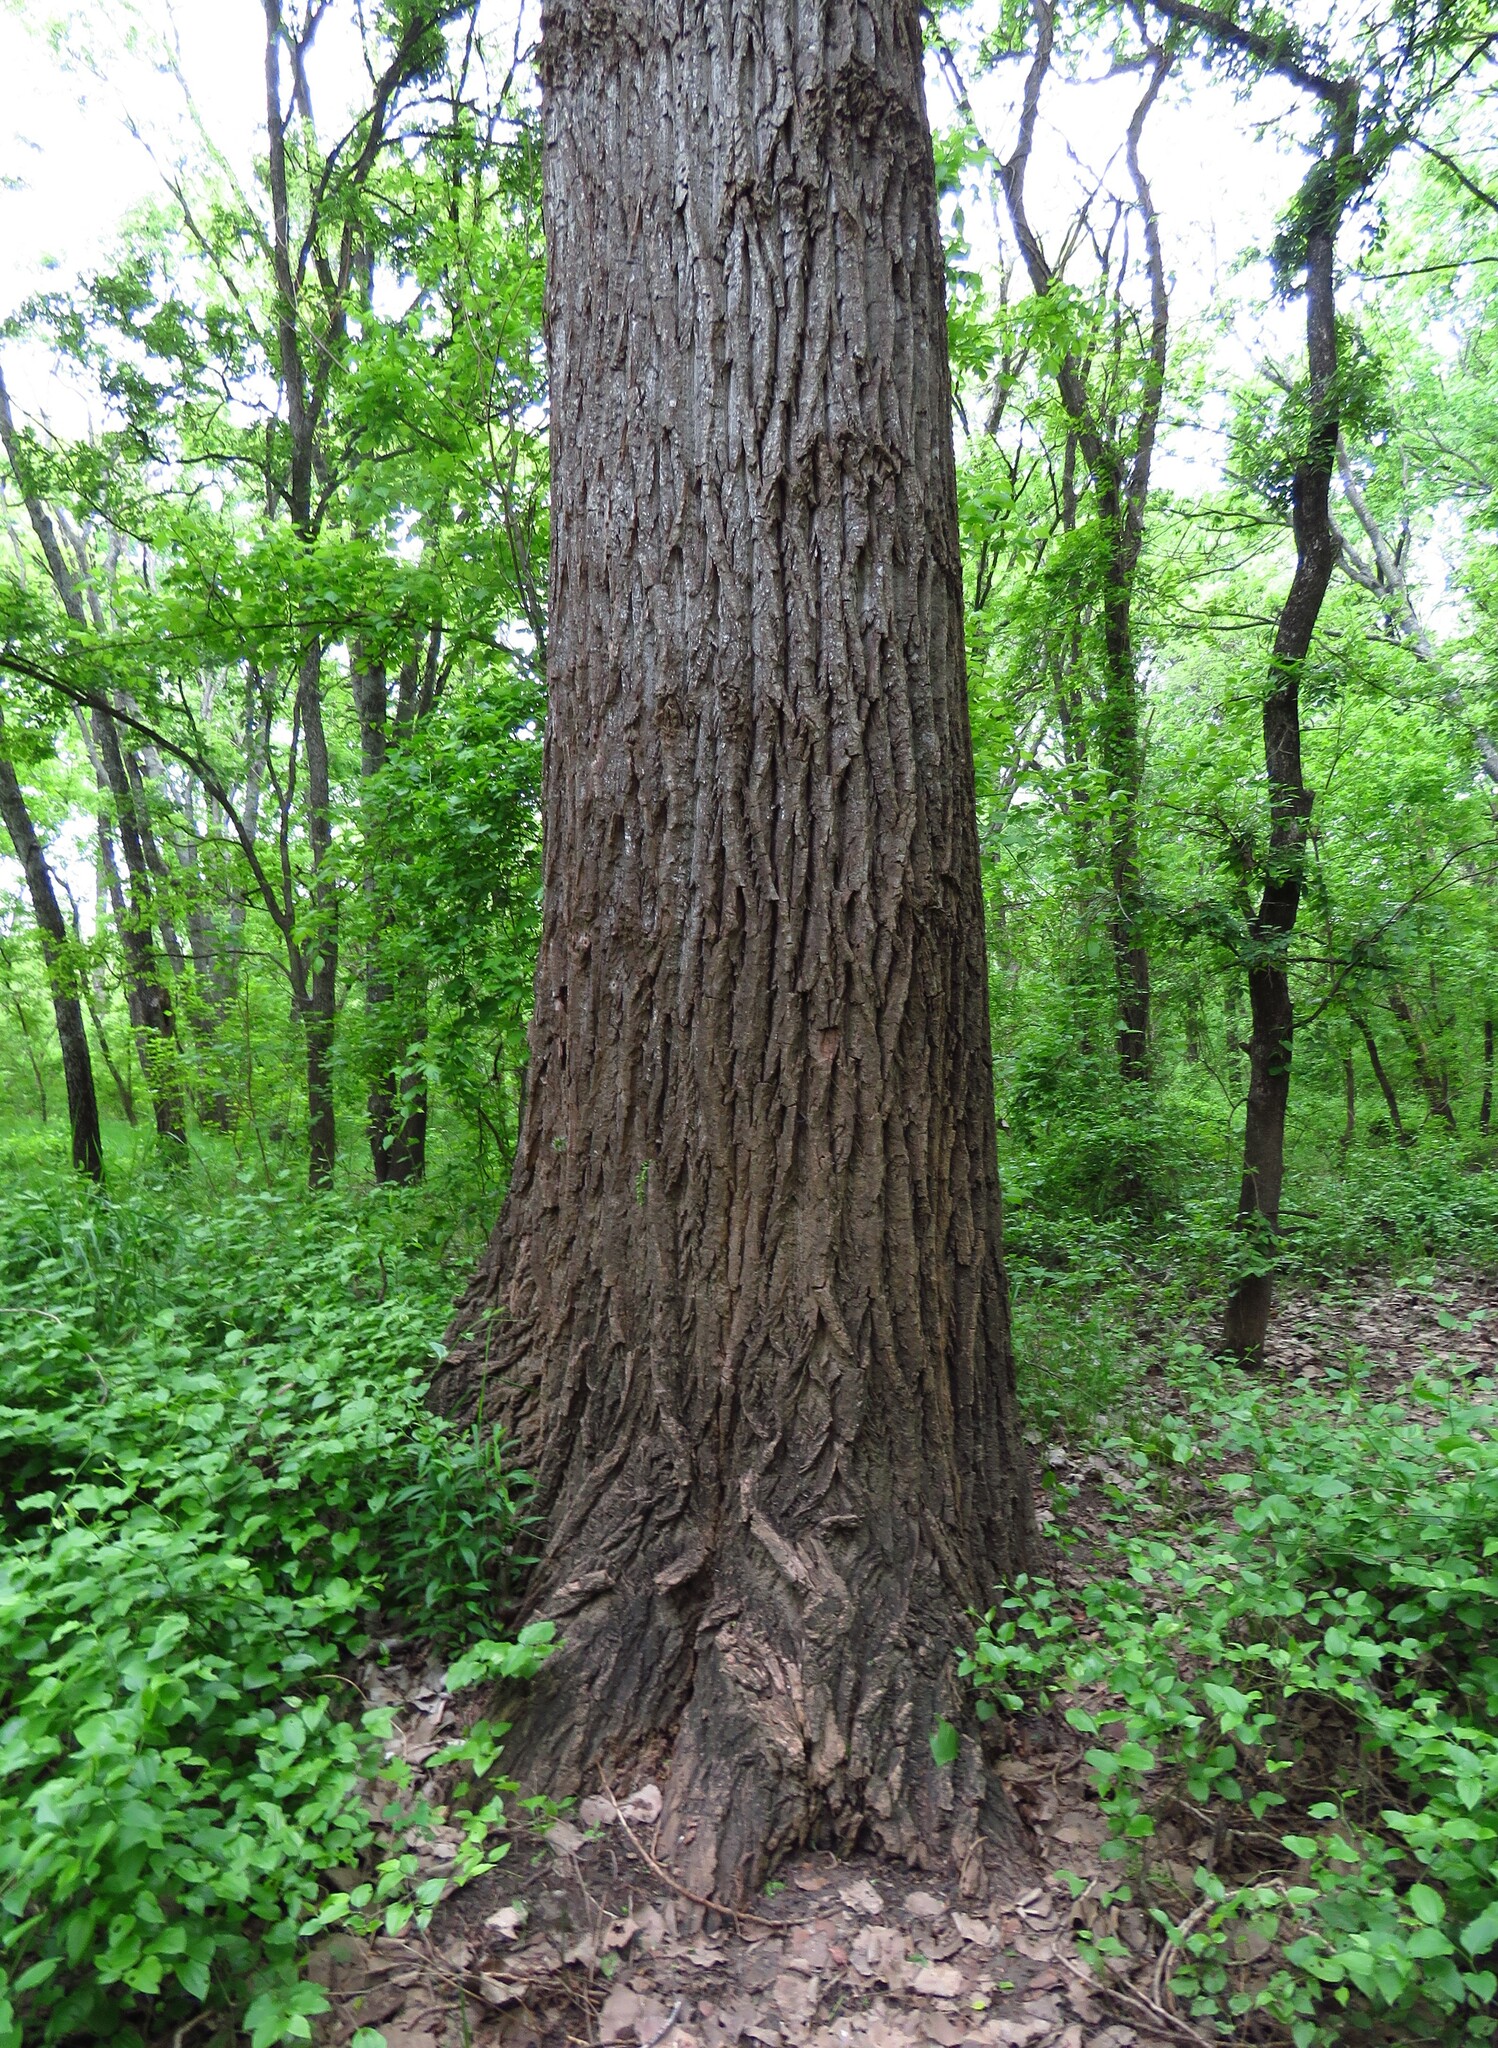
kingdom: Plantae
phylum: Tracheophyta
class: Magnoliopsida
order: Malpighiales
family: Salicaceae
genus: Populus
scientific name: Populus deltoides
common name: Eastern cottonwood
